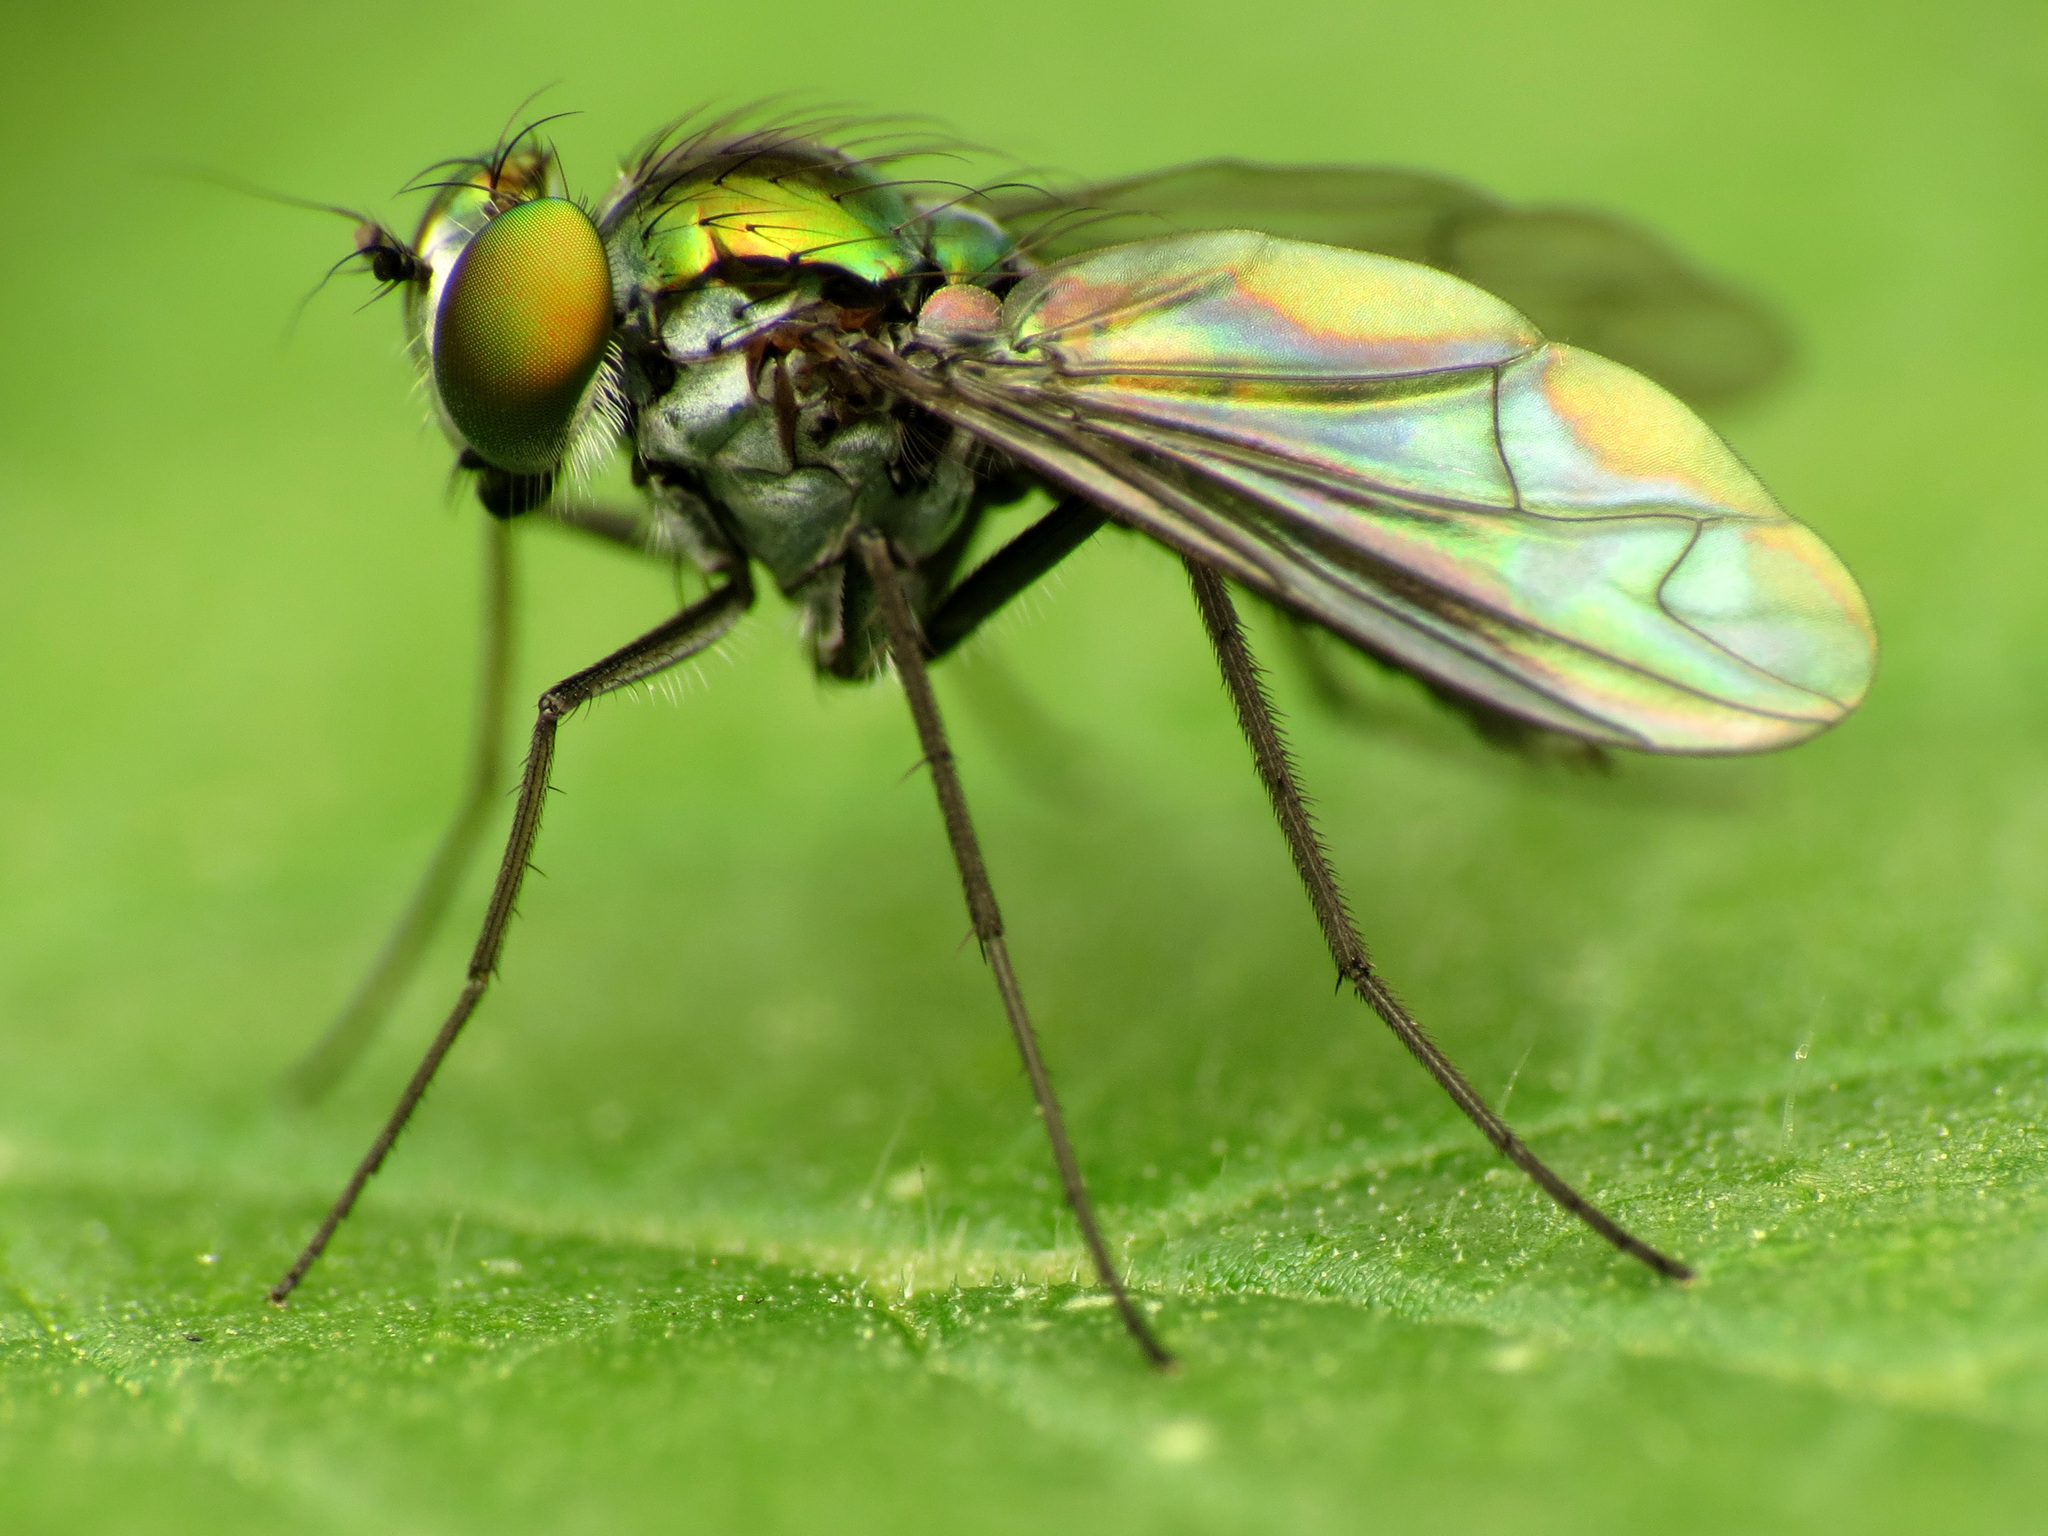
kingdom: Animalia
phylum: Arthropoda
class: Insecta
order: Diptera
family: Dolichopodidae
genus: Condylostylus
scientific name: Condylostylus patibulatus
